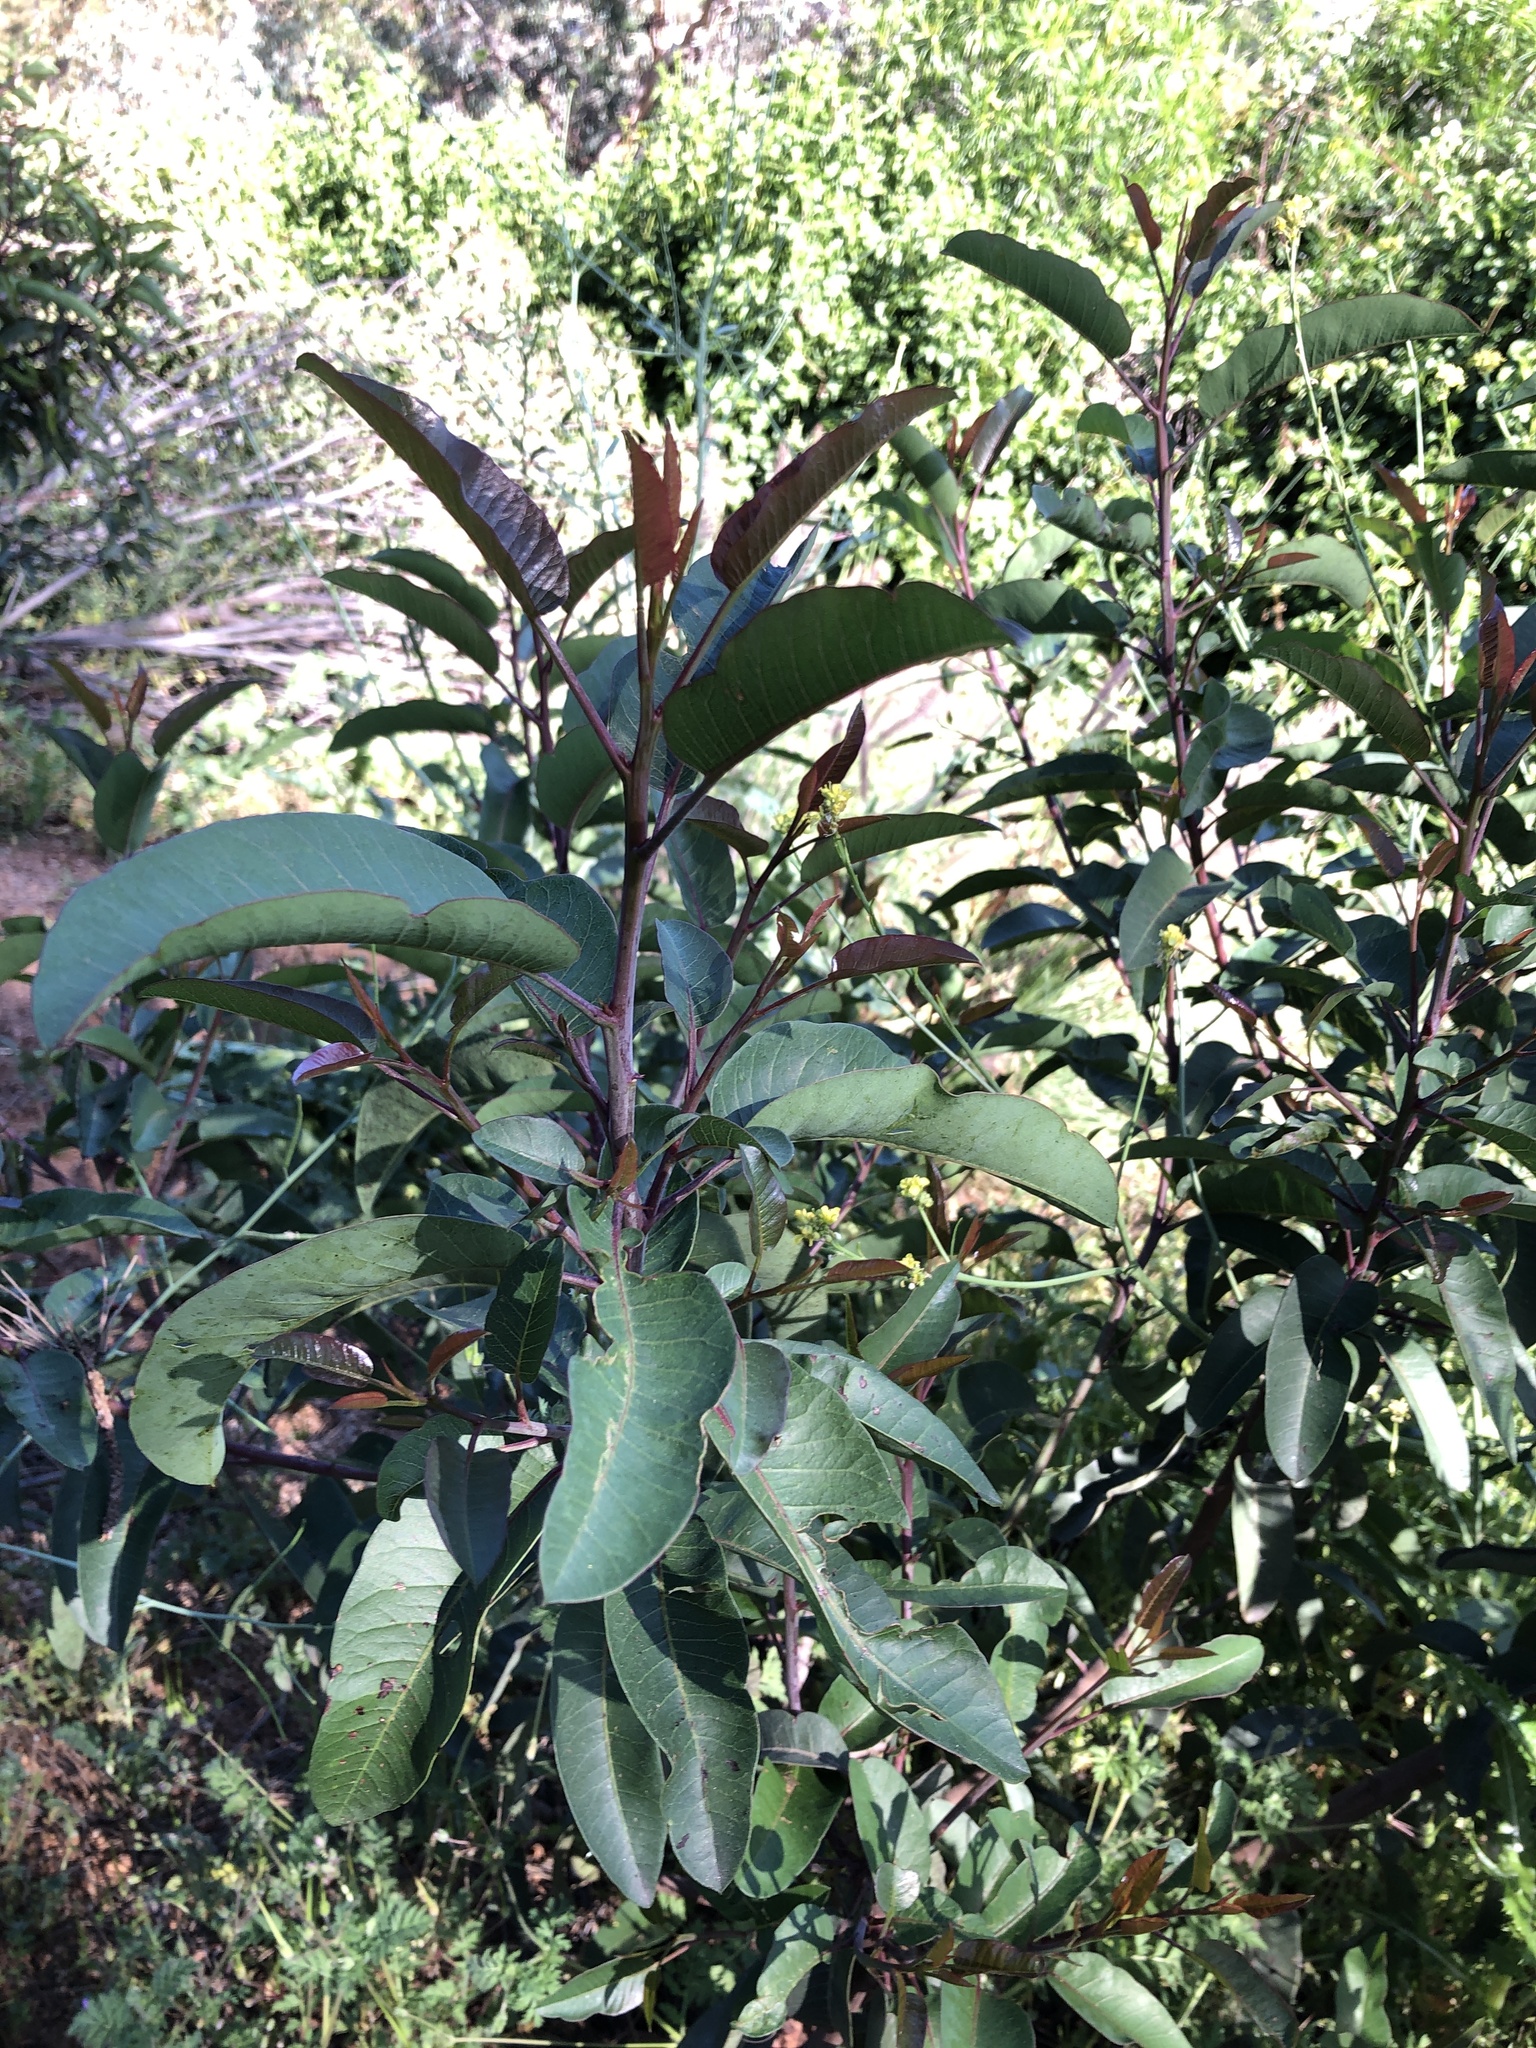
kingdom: Plantae
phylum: Tracheophyta
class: Magnoliopsida
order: Sapindales
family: Anacardiaceae
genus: Malosma
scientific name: Malosma laurina
